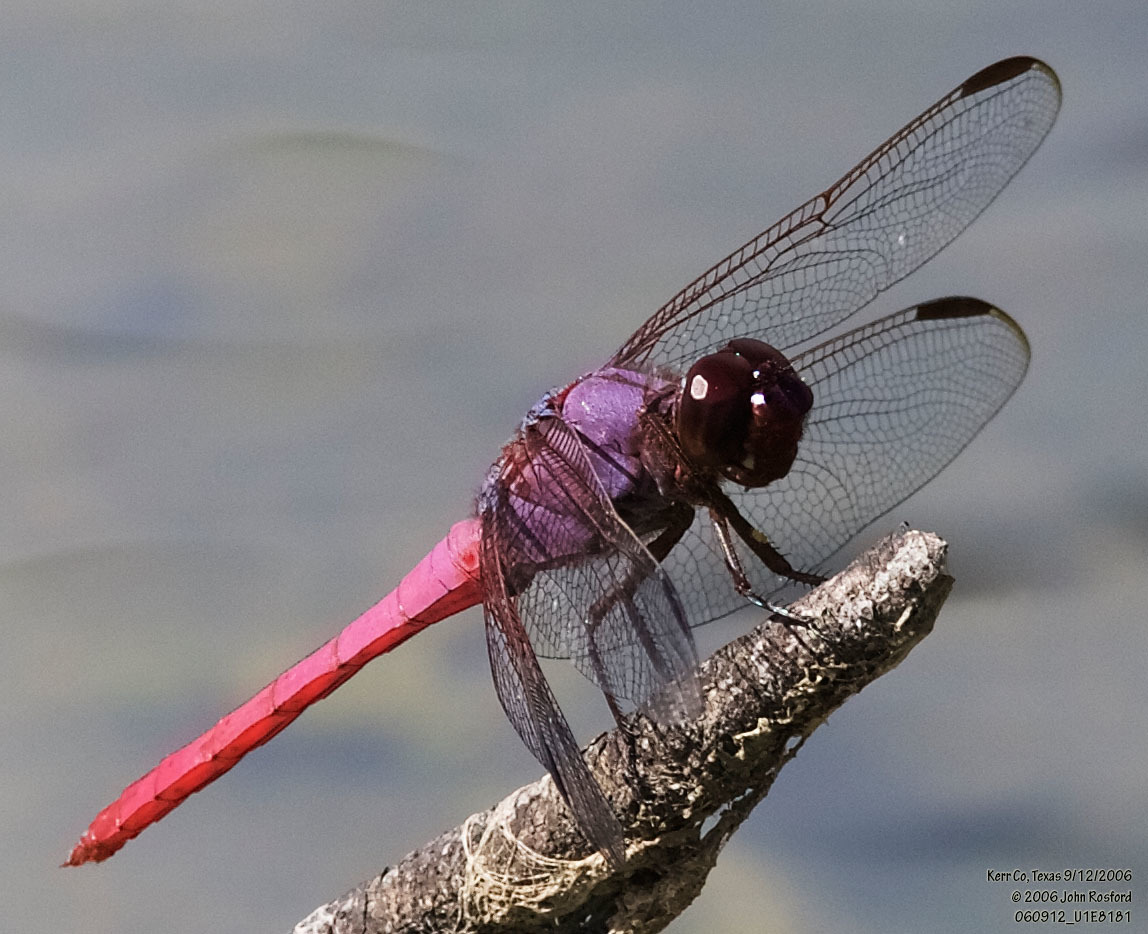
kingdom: Animalia
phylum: Arthropoda
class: Insecta
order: Odonata
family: Libellulidae
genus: Orthemis
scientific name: Orthemis ferruginea
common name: Roseate skimmer
